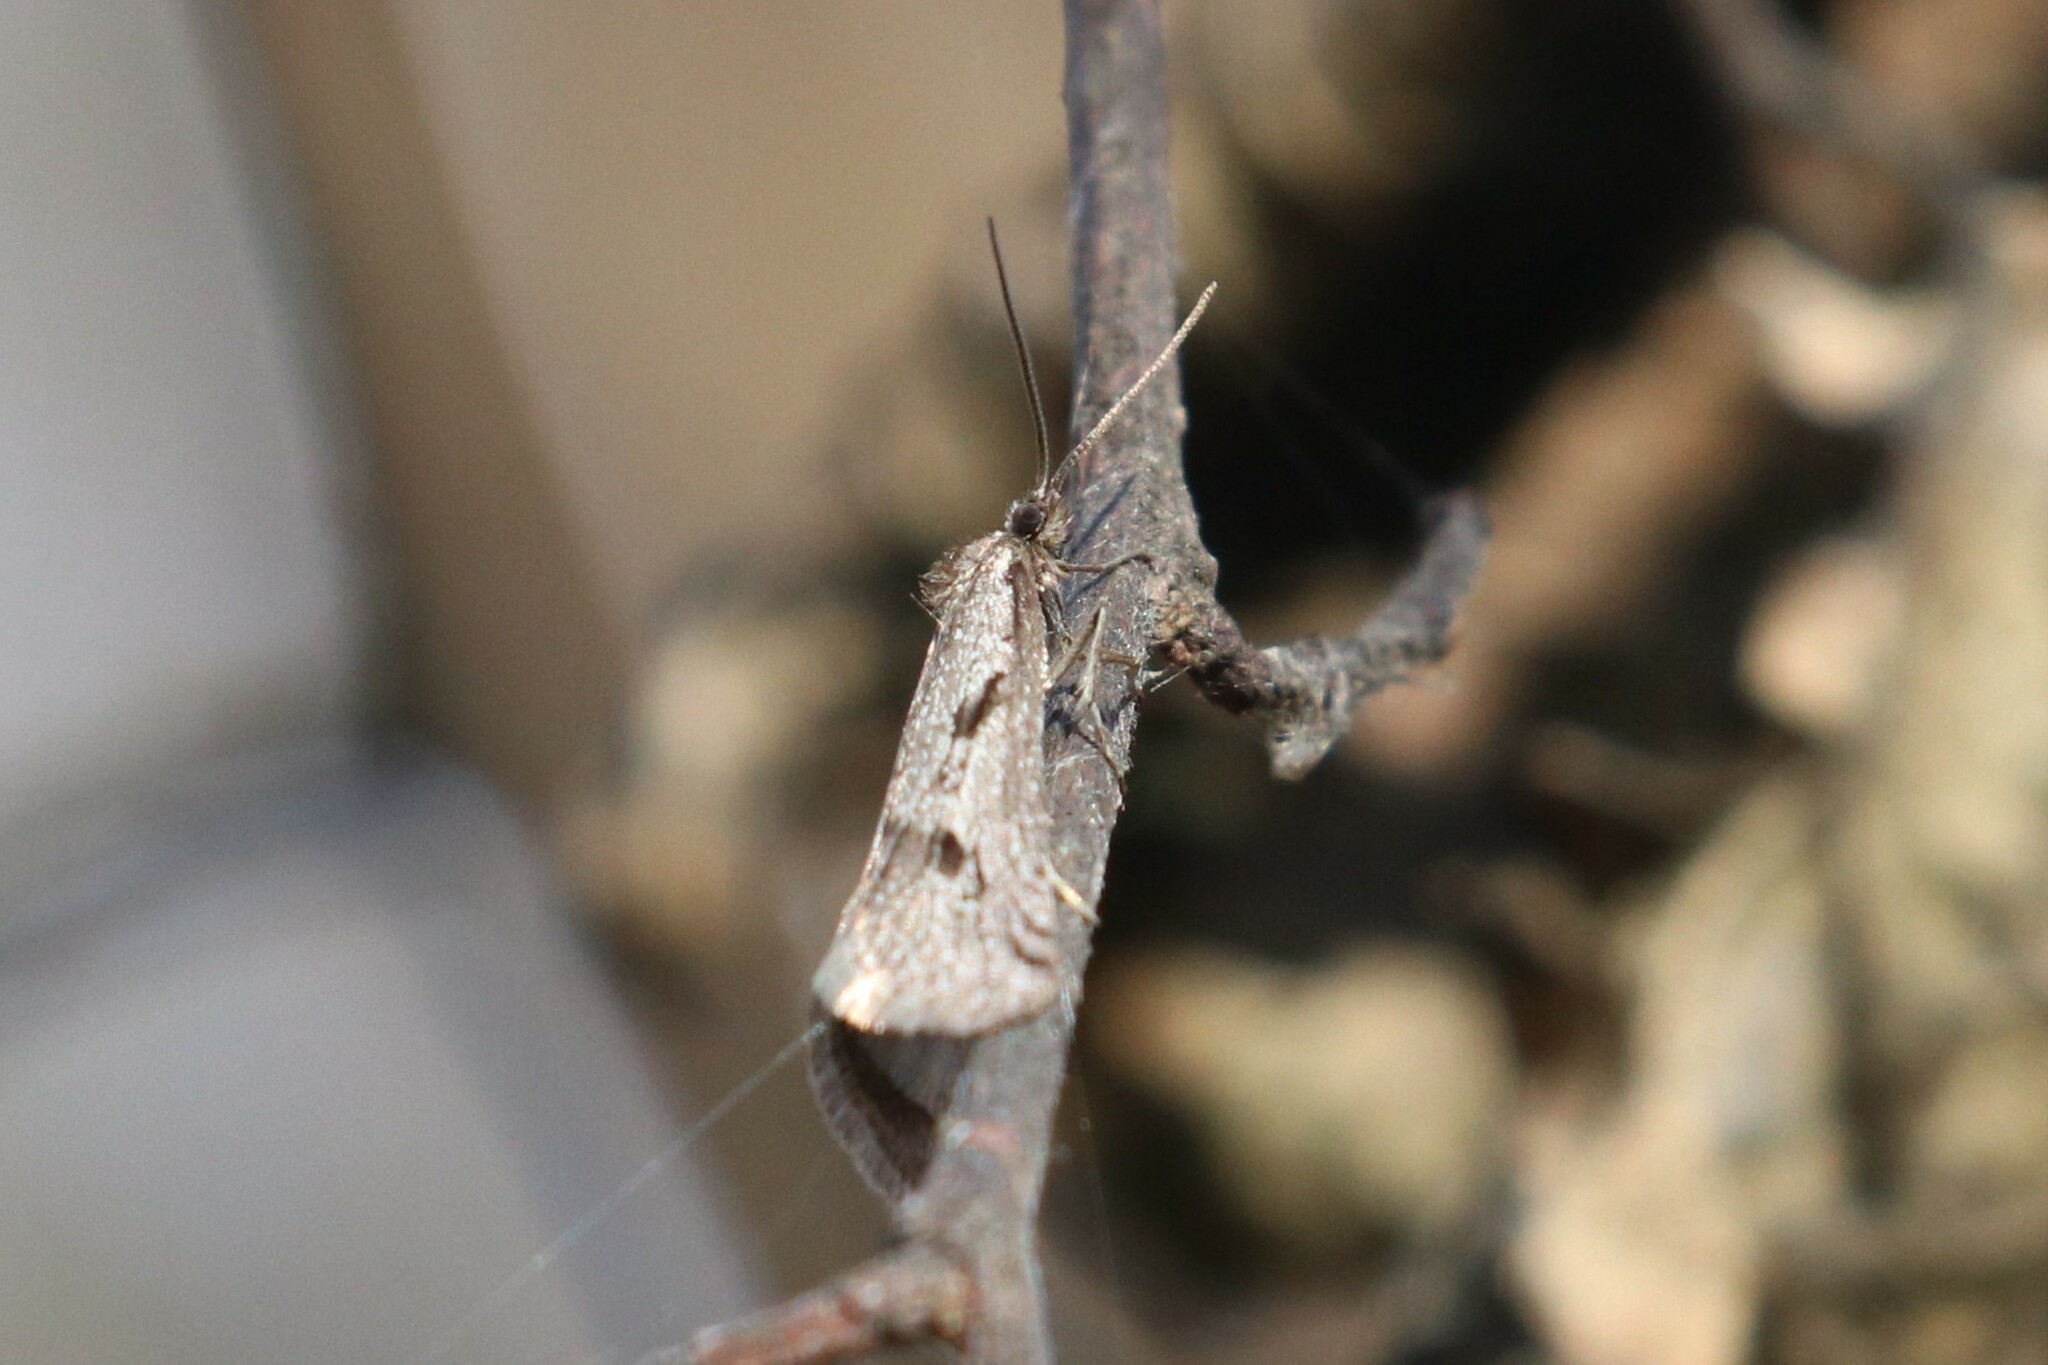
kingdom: Animalia
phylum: Arthropoda
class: Insecta
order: Lepidoptera
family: Tortricidae
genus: Exapate
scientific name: Exapate congelatella
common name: Autumnal shade
